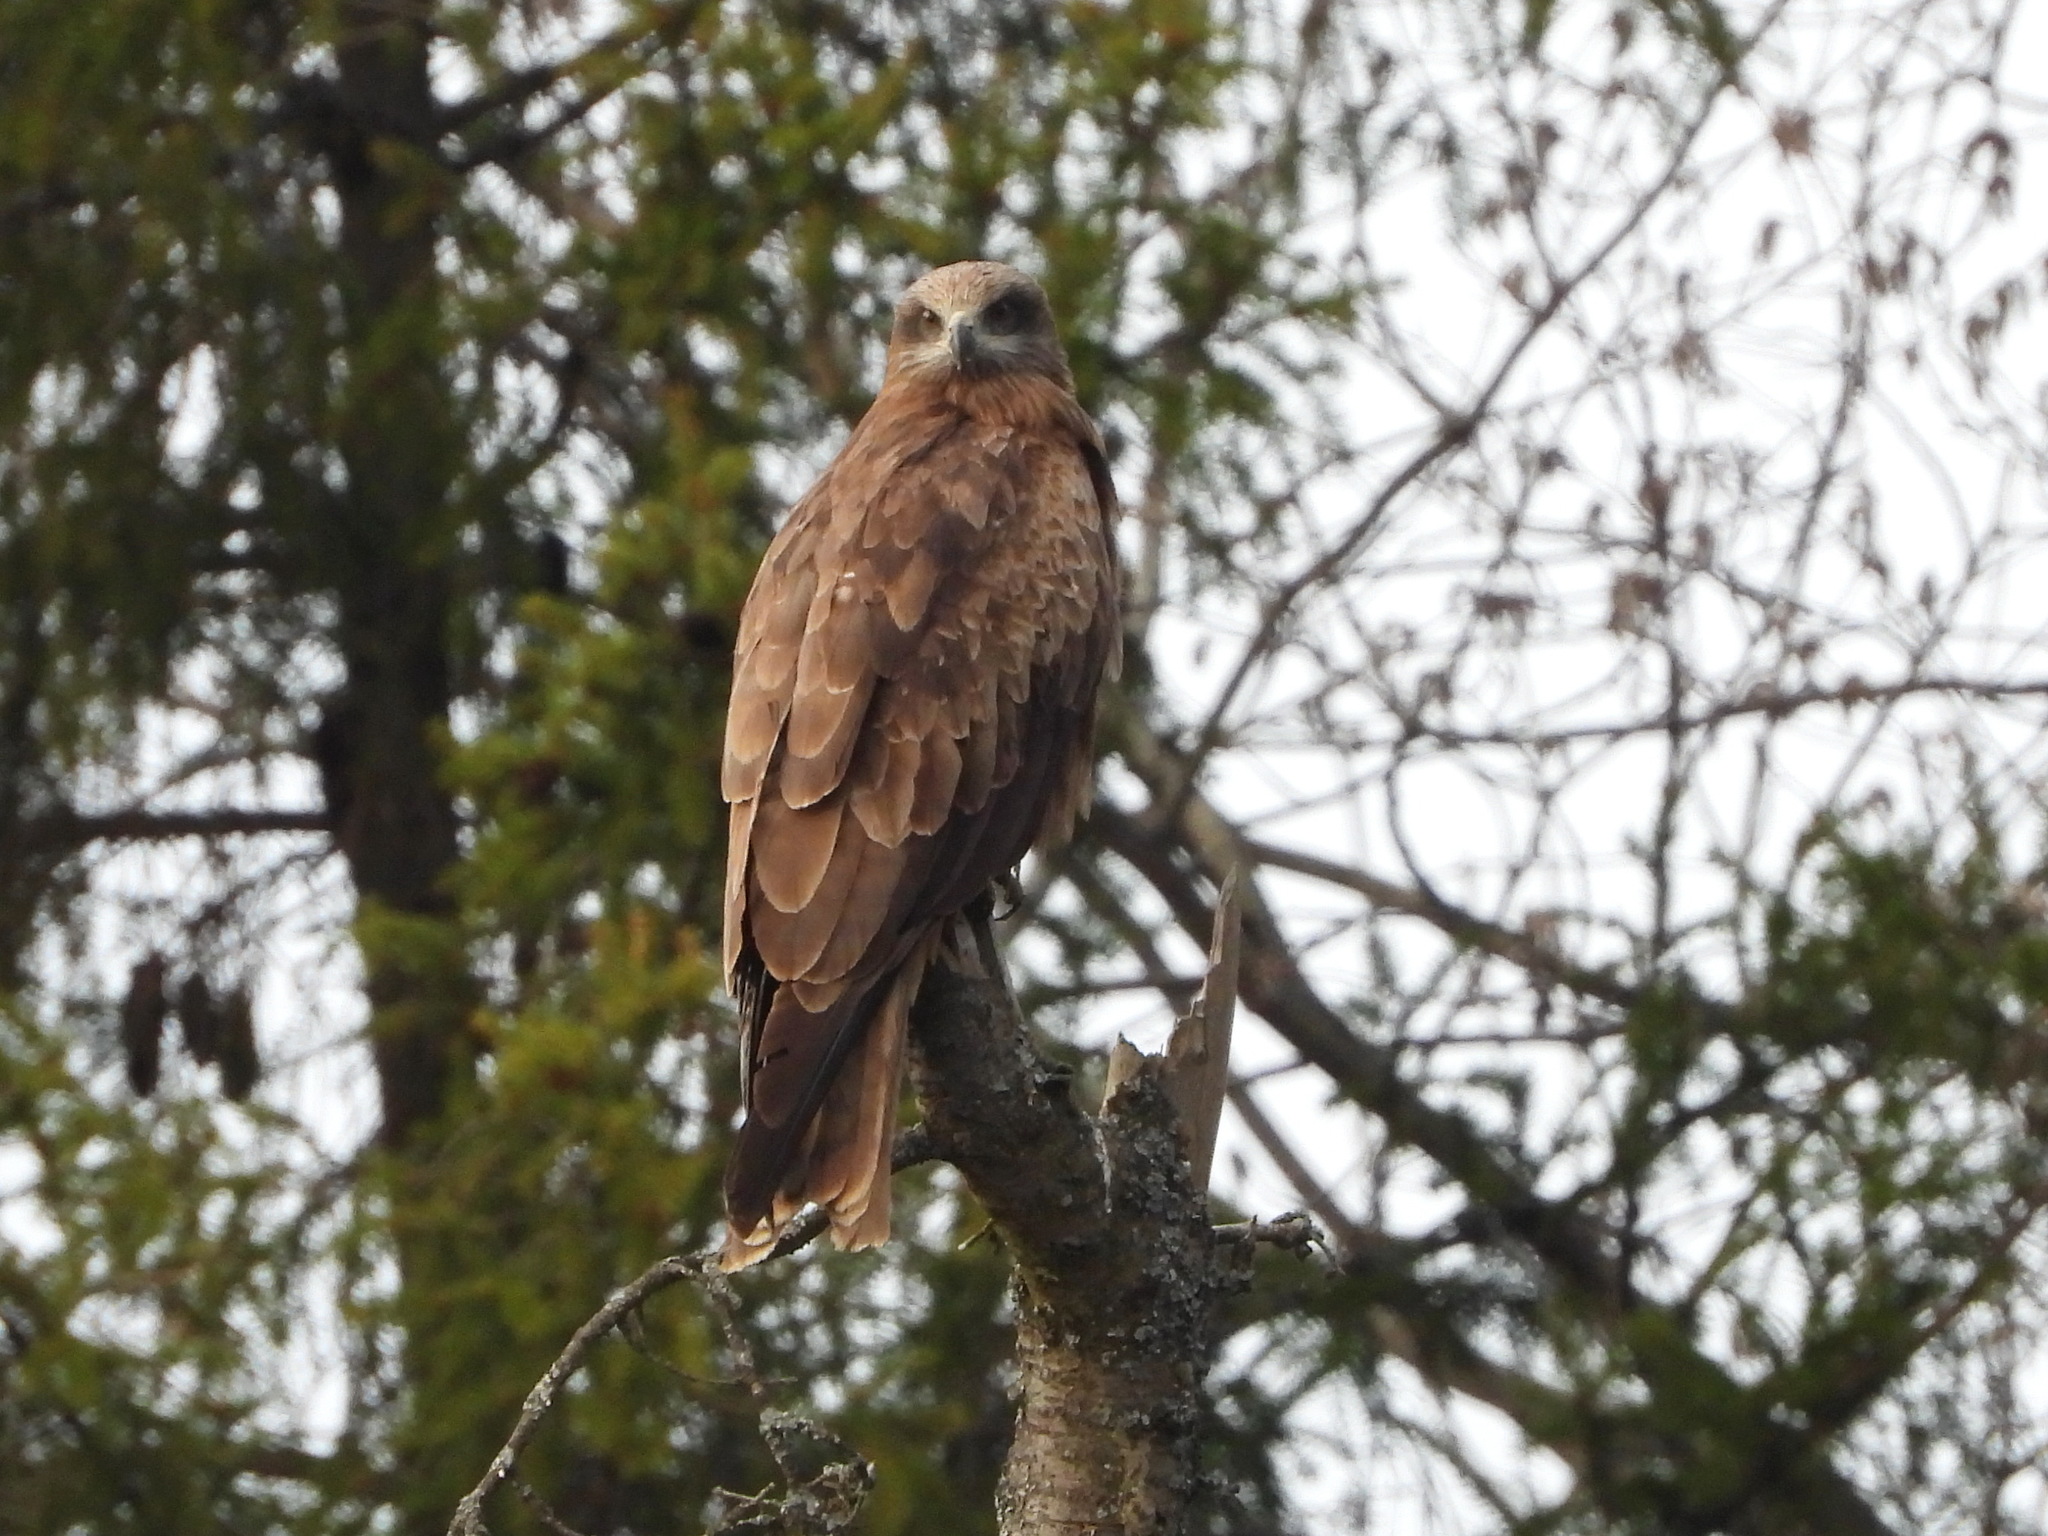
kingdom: Animalia
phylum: Chordata
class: Aves
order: Accipitriformes
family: Accipitridae
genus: Milvus
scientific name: Milvus migrans
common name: Black kite
